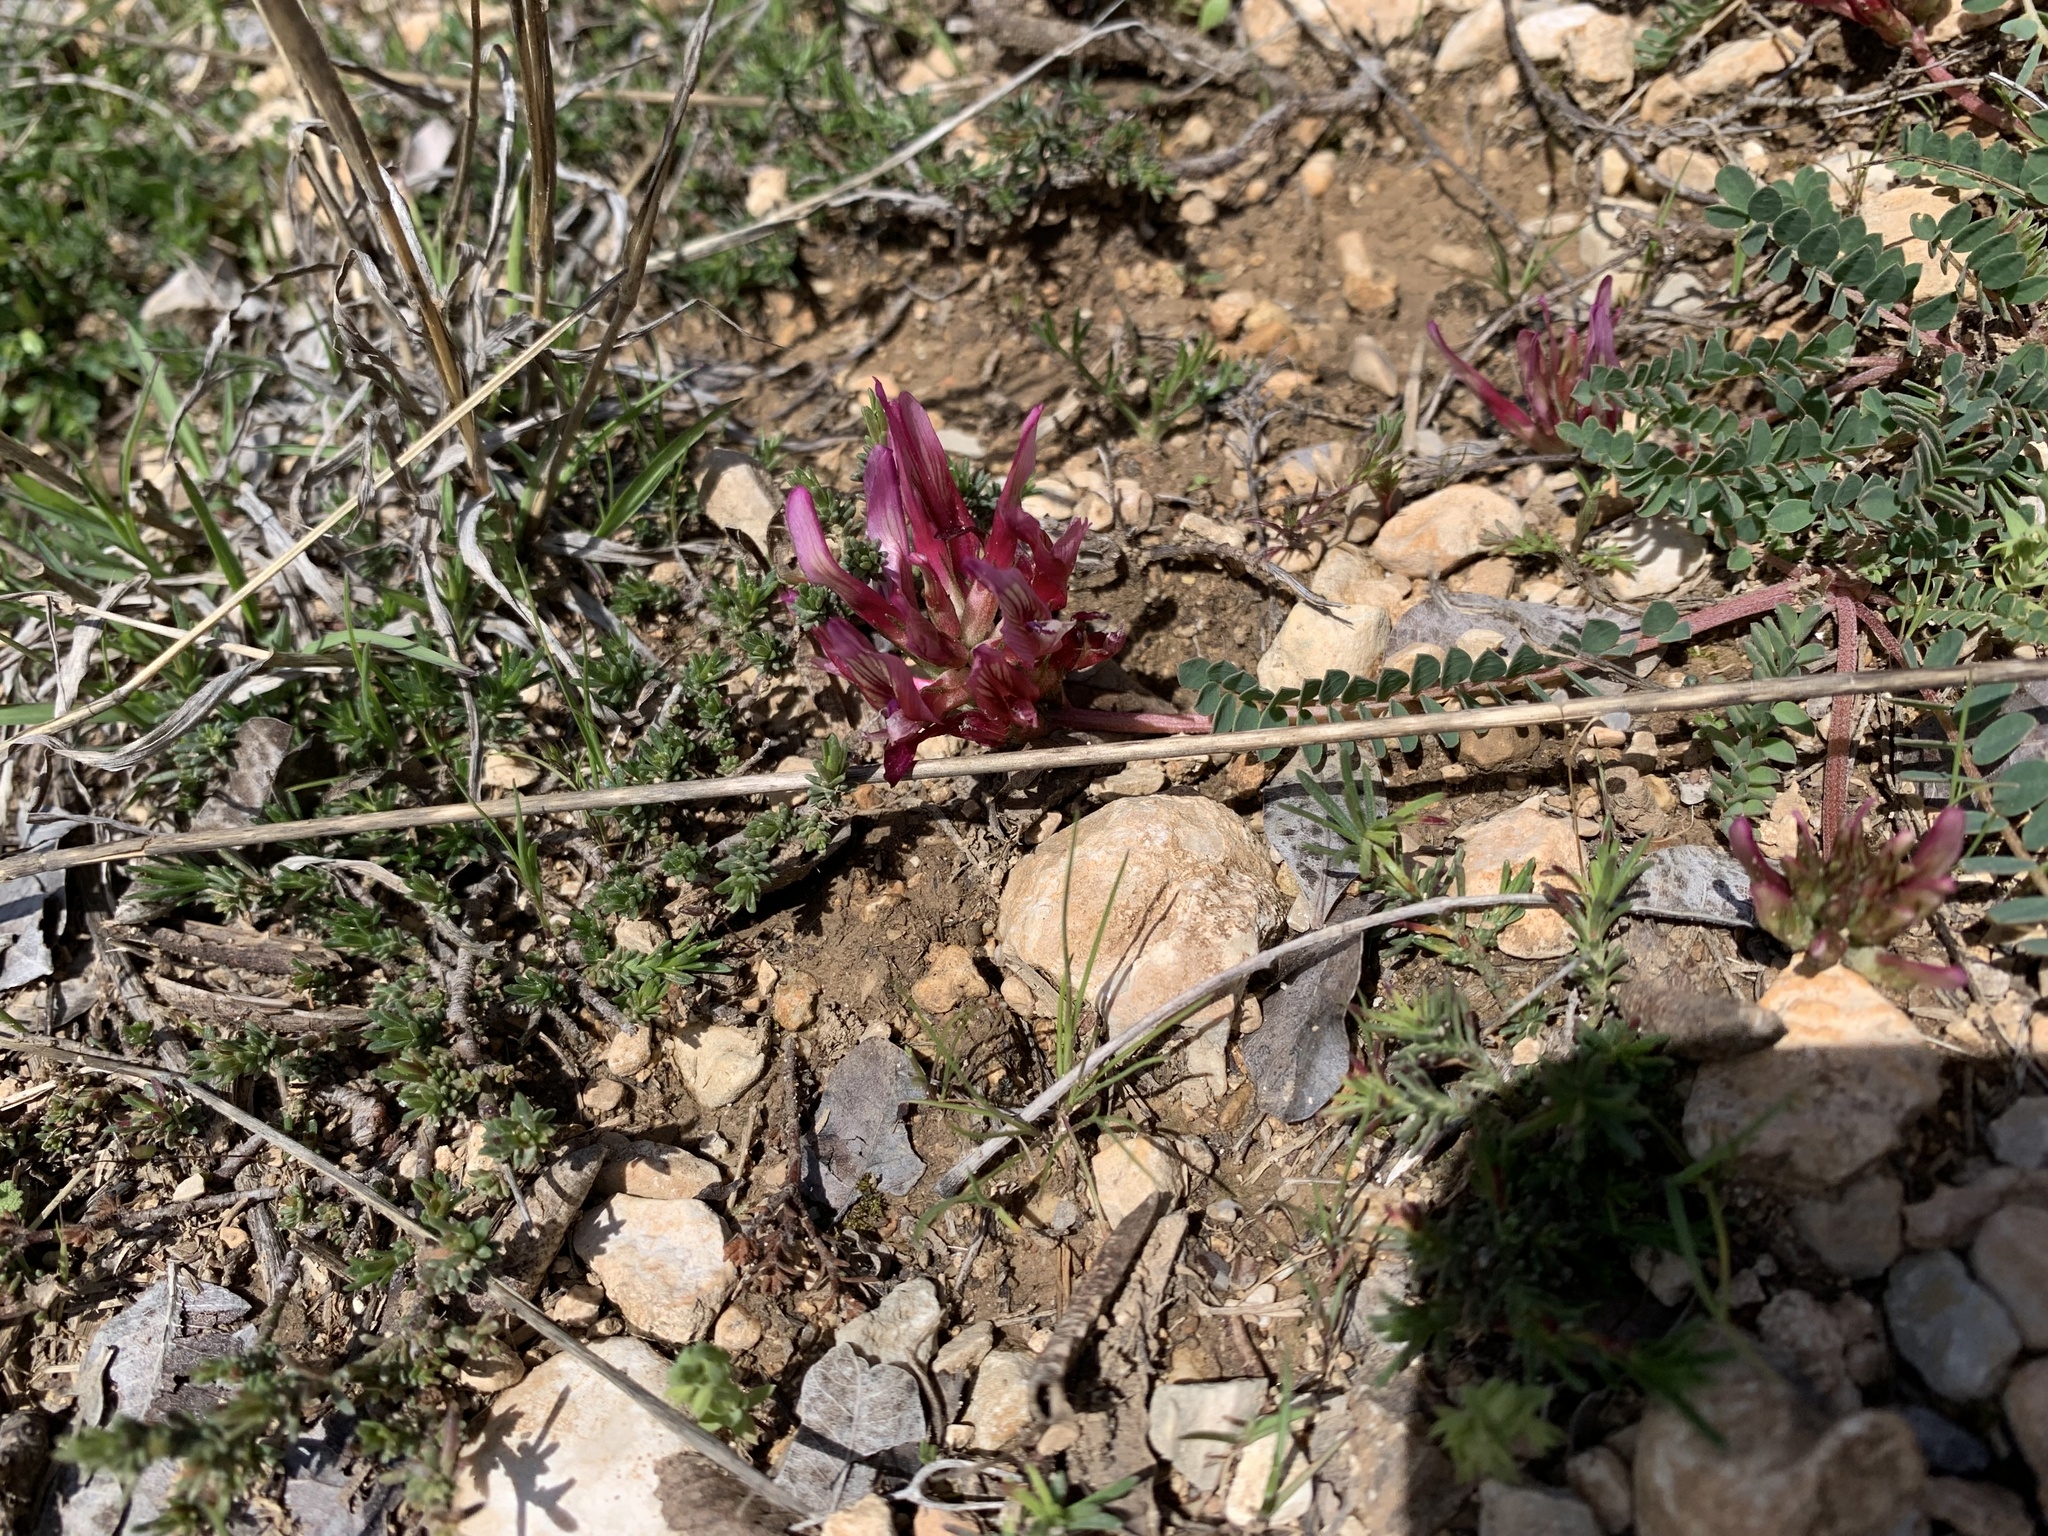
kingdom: Plantae
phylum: Tracheophyta
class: Magnoliopsida
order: Fabales
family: Fabaceae
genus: Astragalus
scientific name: Astragalus monspessulanus
